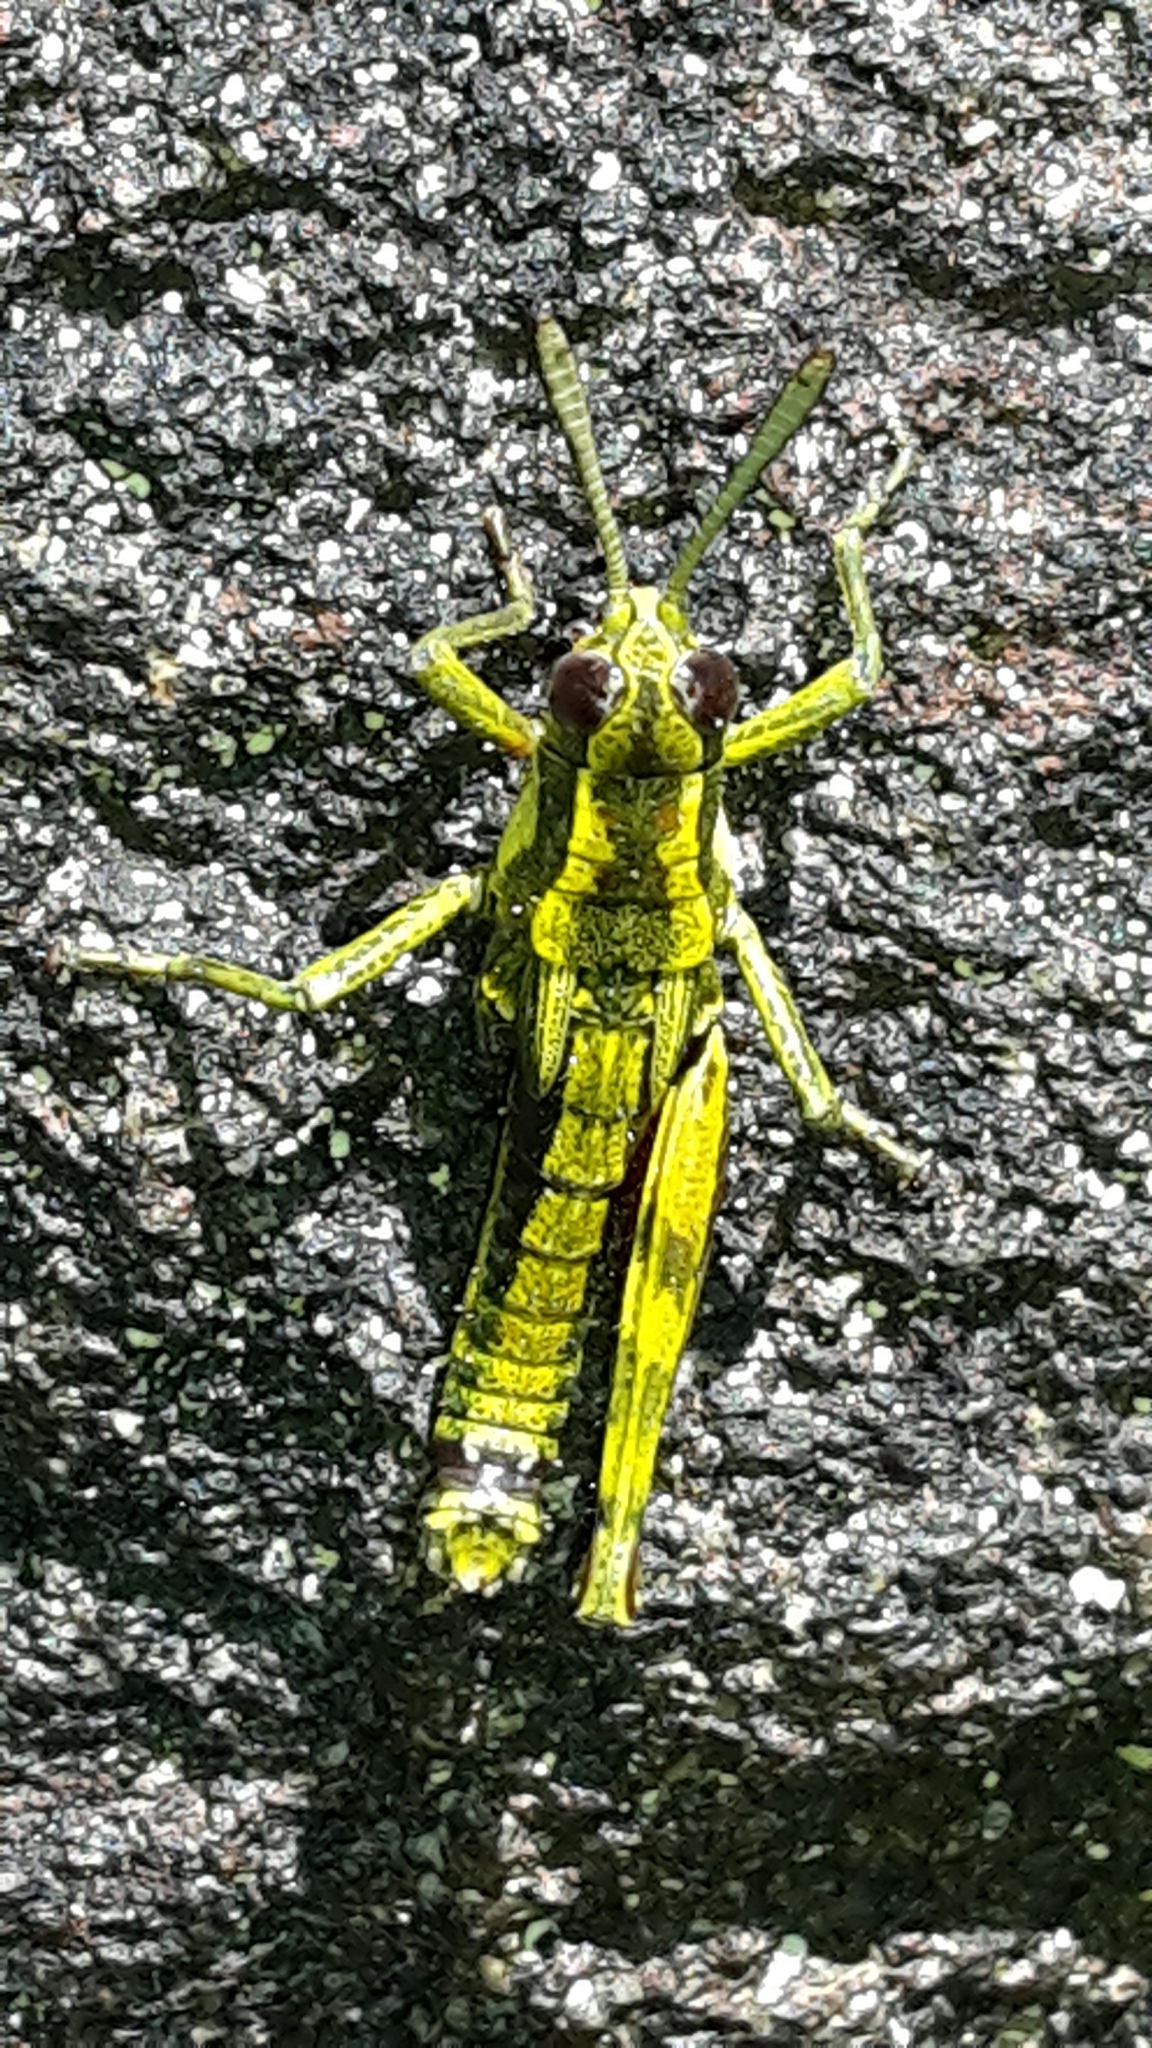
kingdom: Animalia
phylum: Arthropoda
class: Insecta
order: Orthoptera
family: Acrididae
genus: Sigaus
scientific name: Sigaus piliferus
